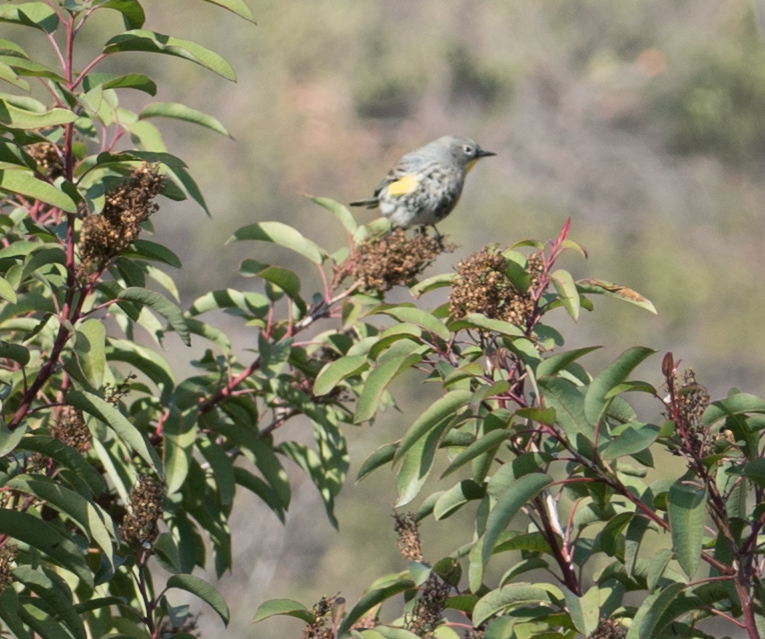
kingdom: Animalia
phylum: Chordata
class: Aves
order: Passeriformes
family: Parulidae
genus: Setophaga
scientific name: Setophaga auduboni
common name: Audubon's warbler
